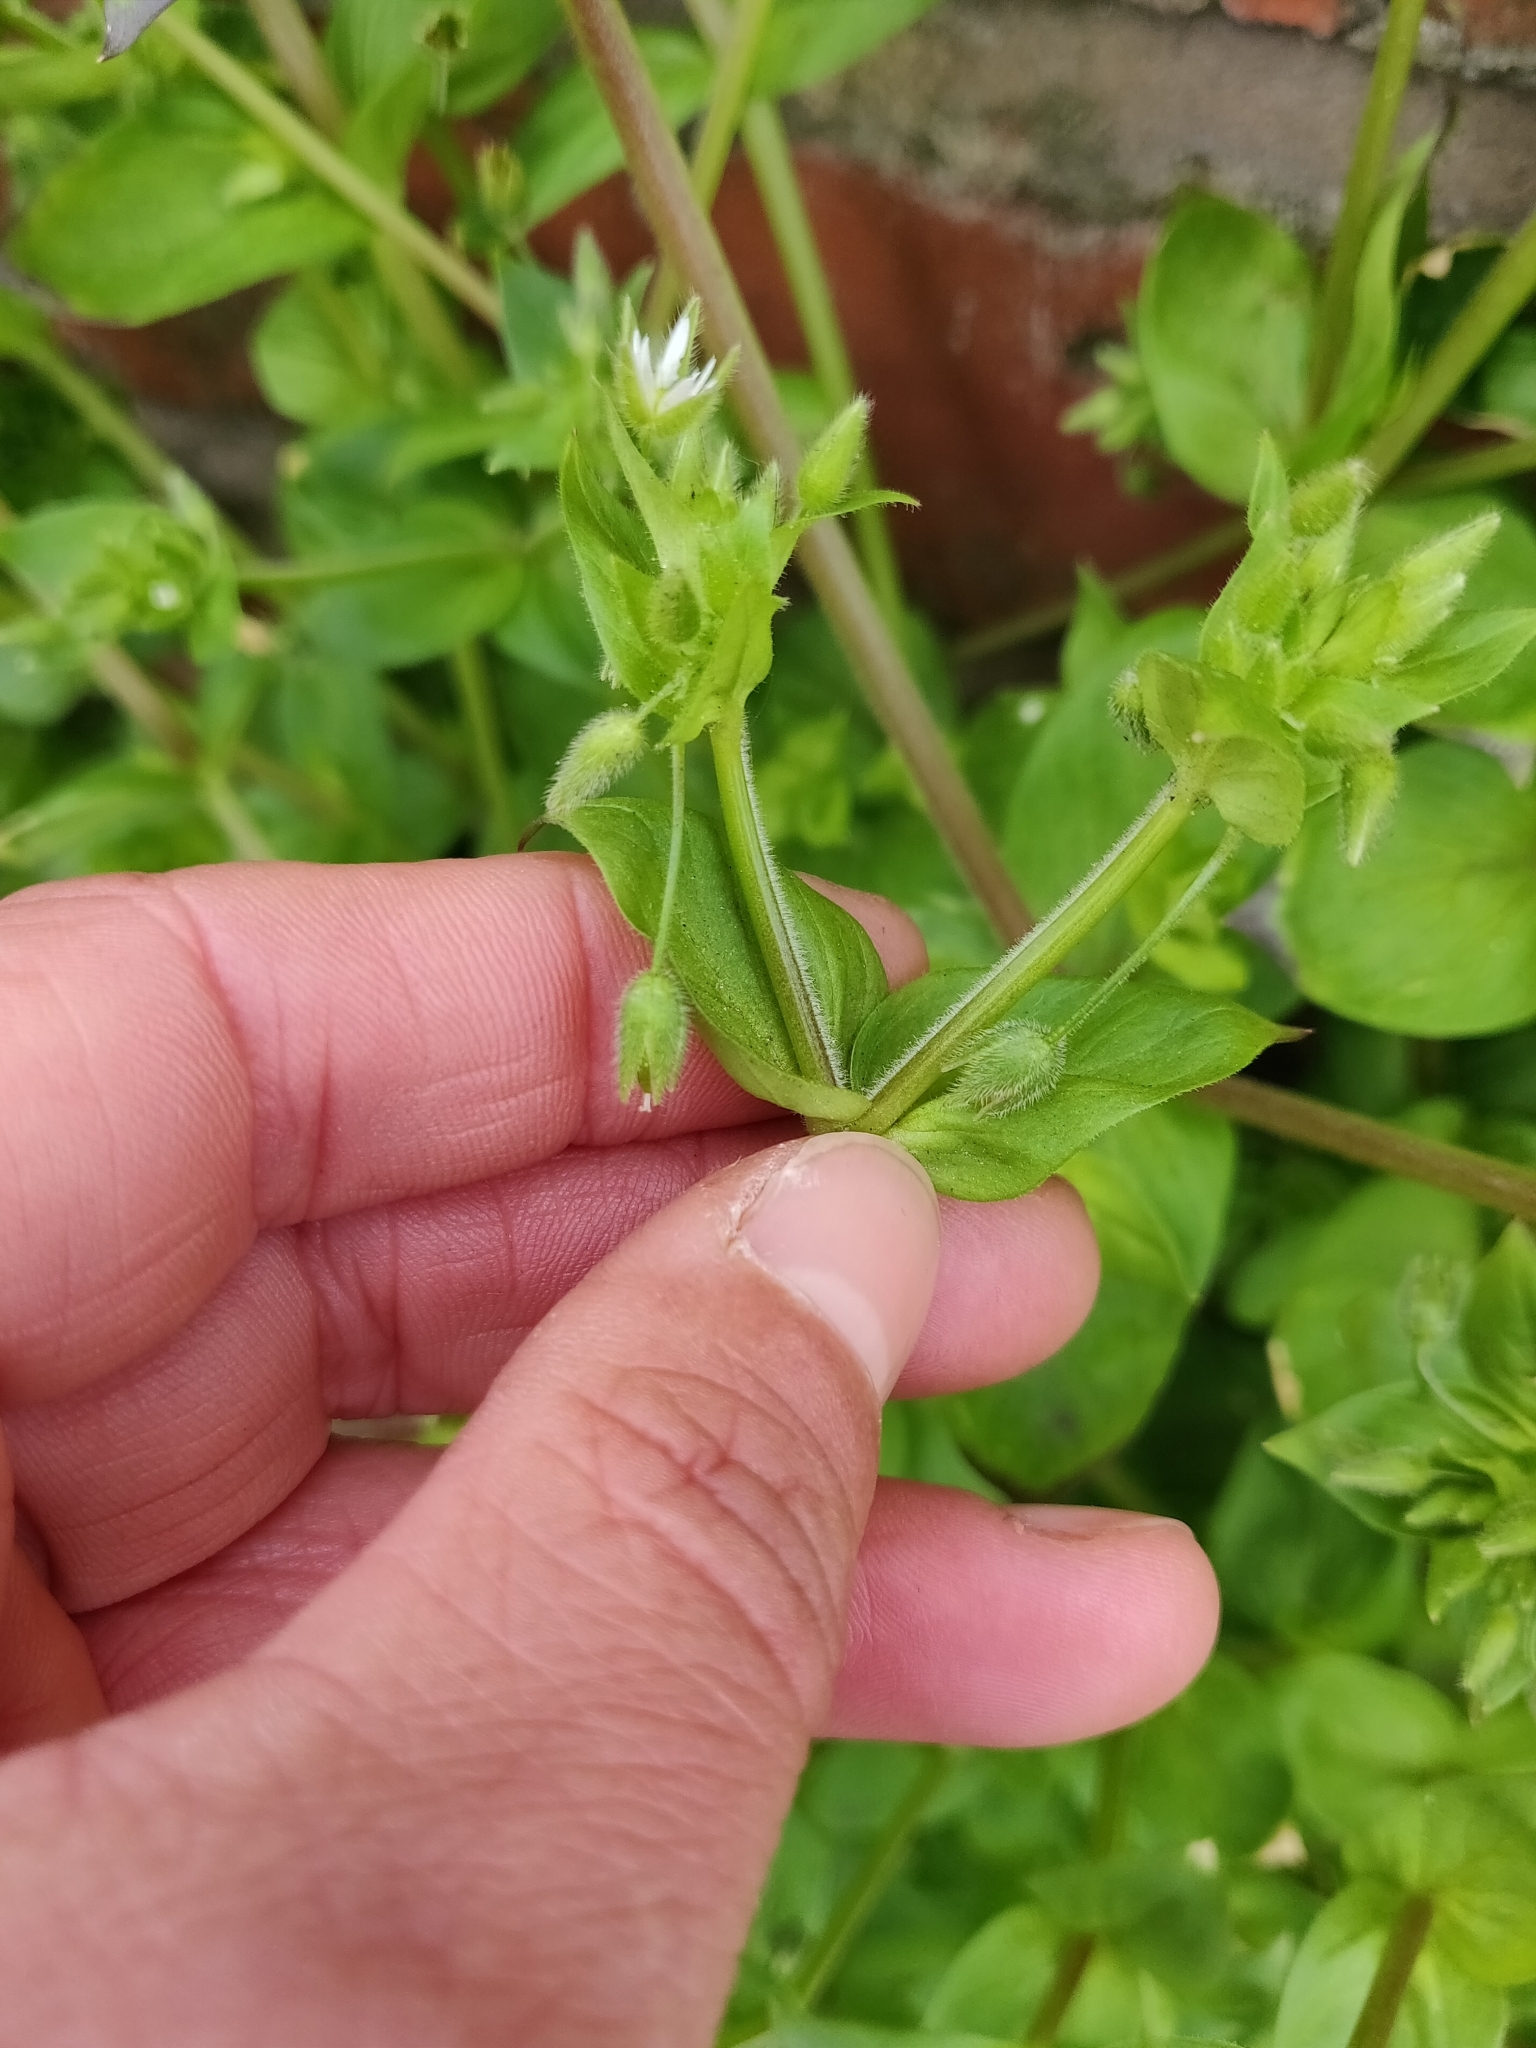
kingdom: Plantae
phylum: Tracheophyta
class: Magnoliopsida
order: Caryophyllales
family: Caryophyllaceae
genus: Stellaria
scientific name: Stellaria media
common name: Common chickweed
